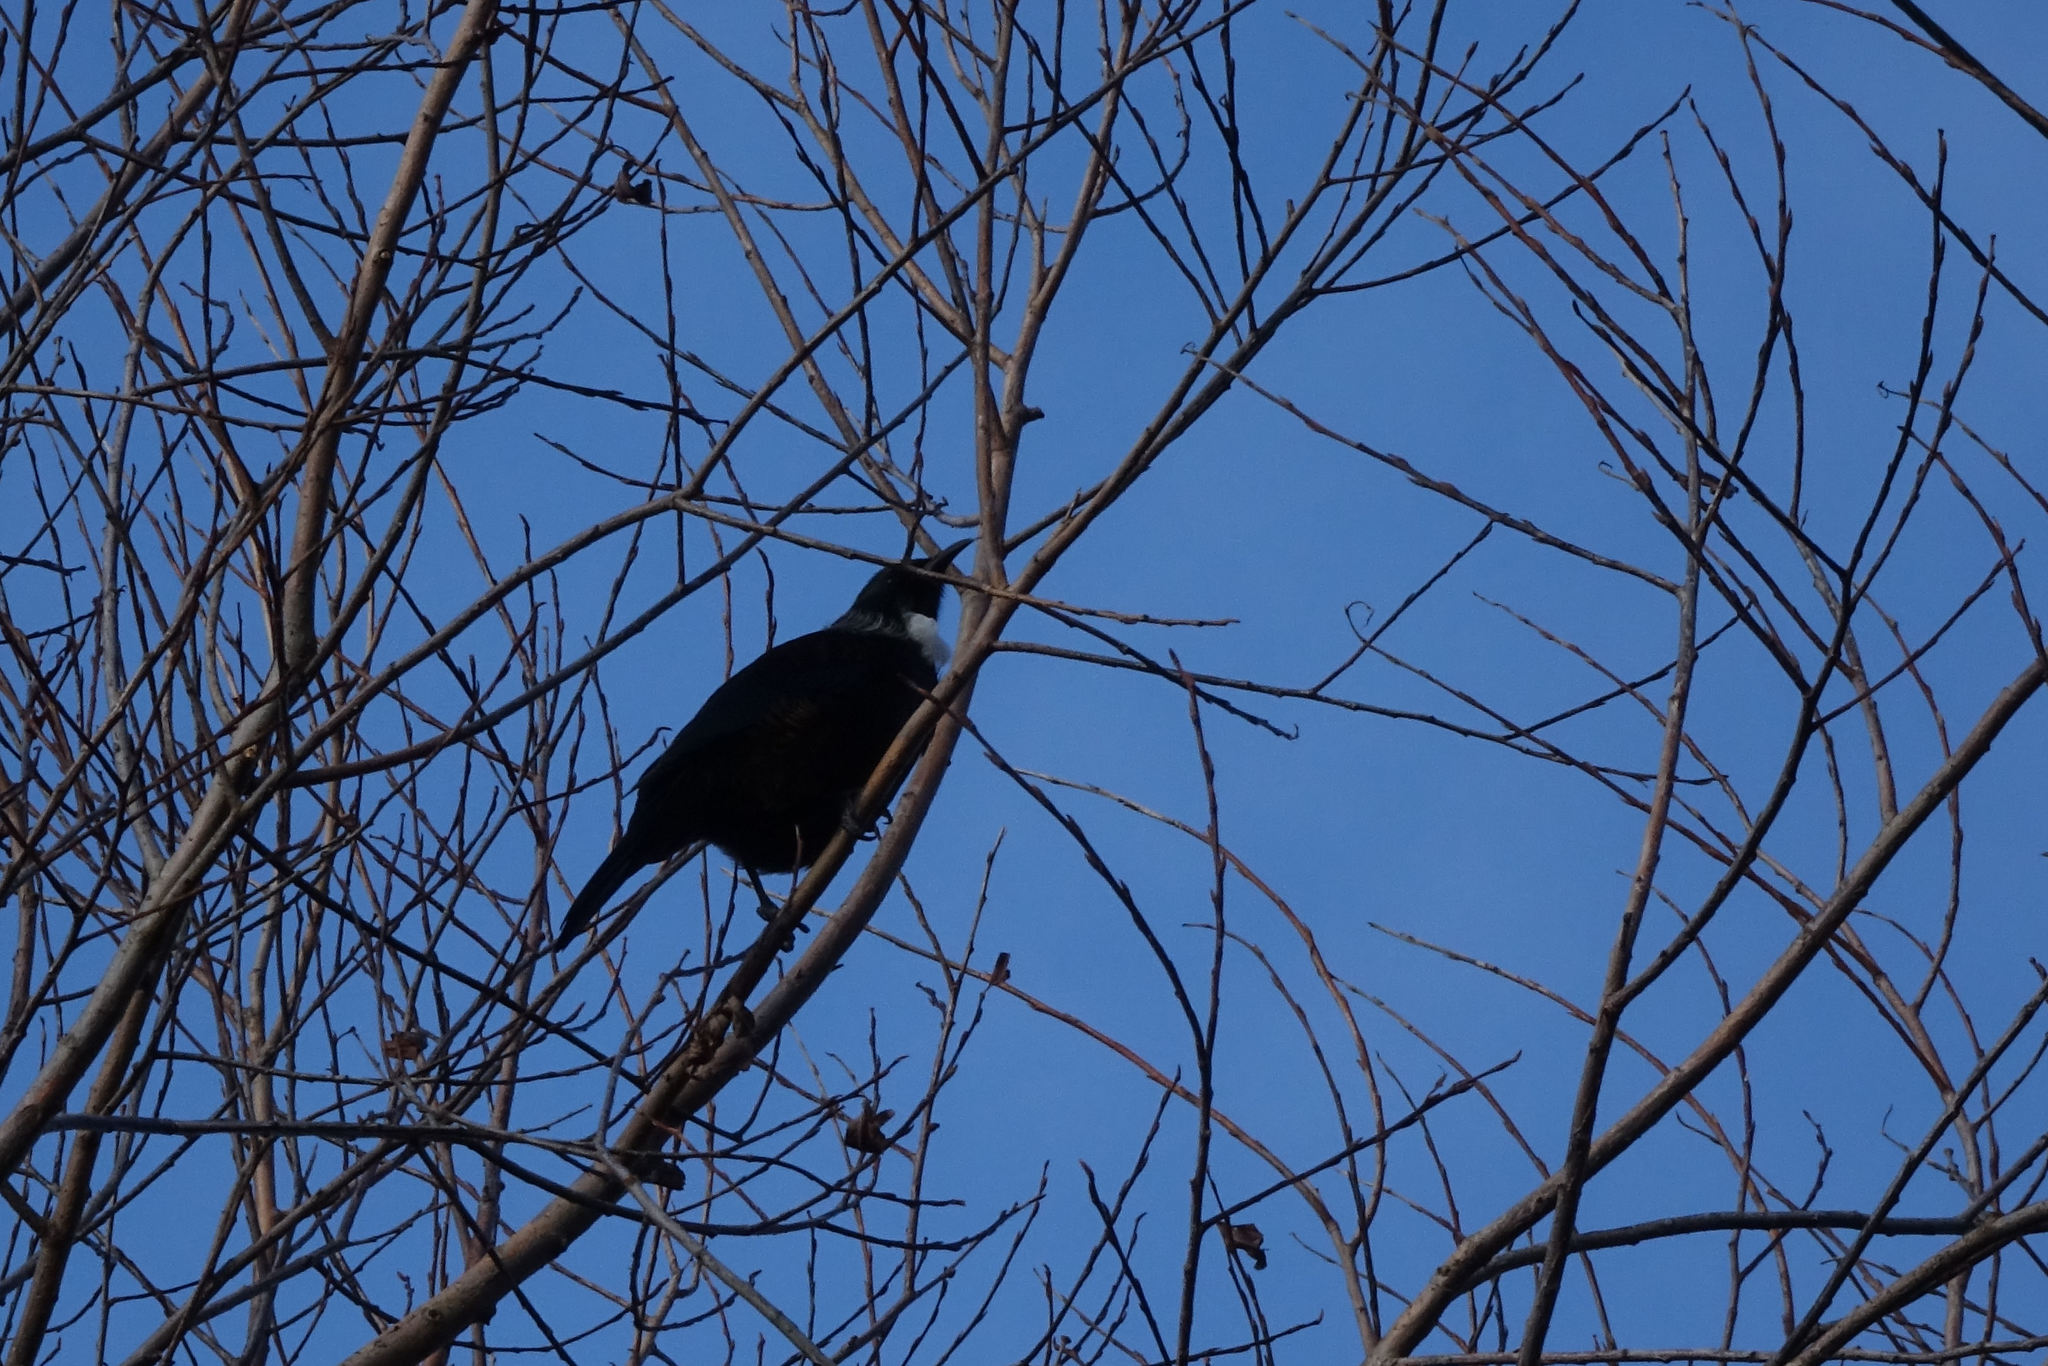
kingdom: Animalia
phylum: Chordata
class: Aves
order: Passeriformes
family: Meliphagidae
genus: Prosthemadera
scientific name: Prosthemadera novaeseelandiae
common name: Tui
